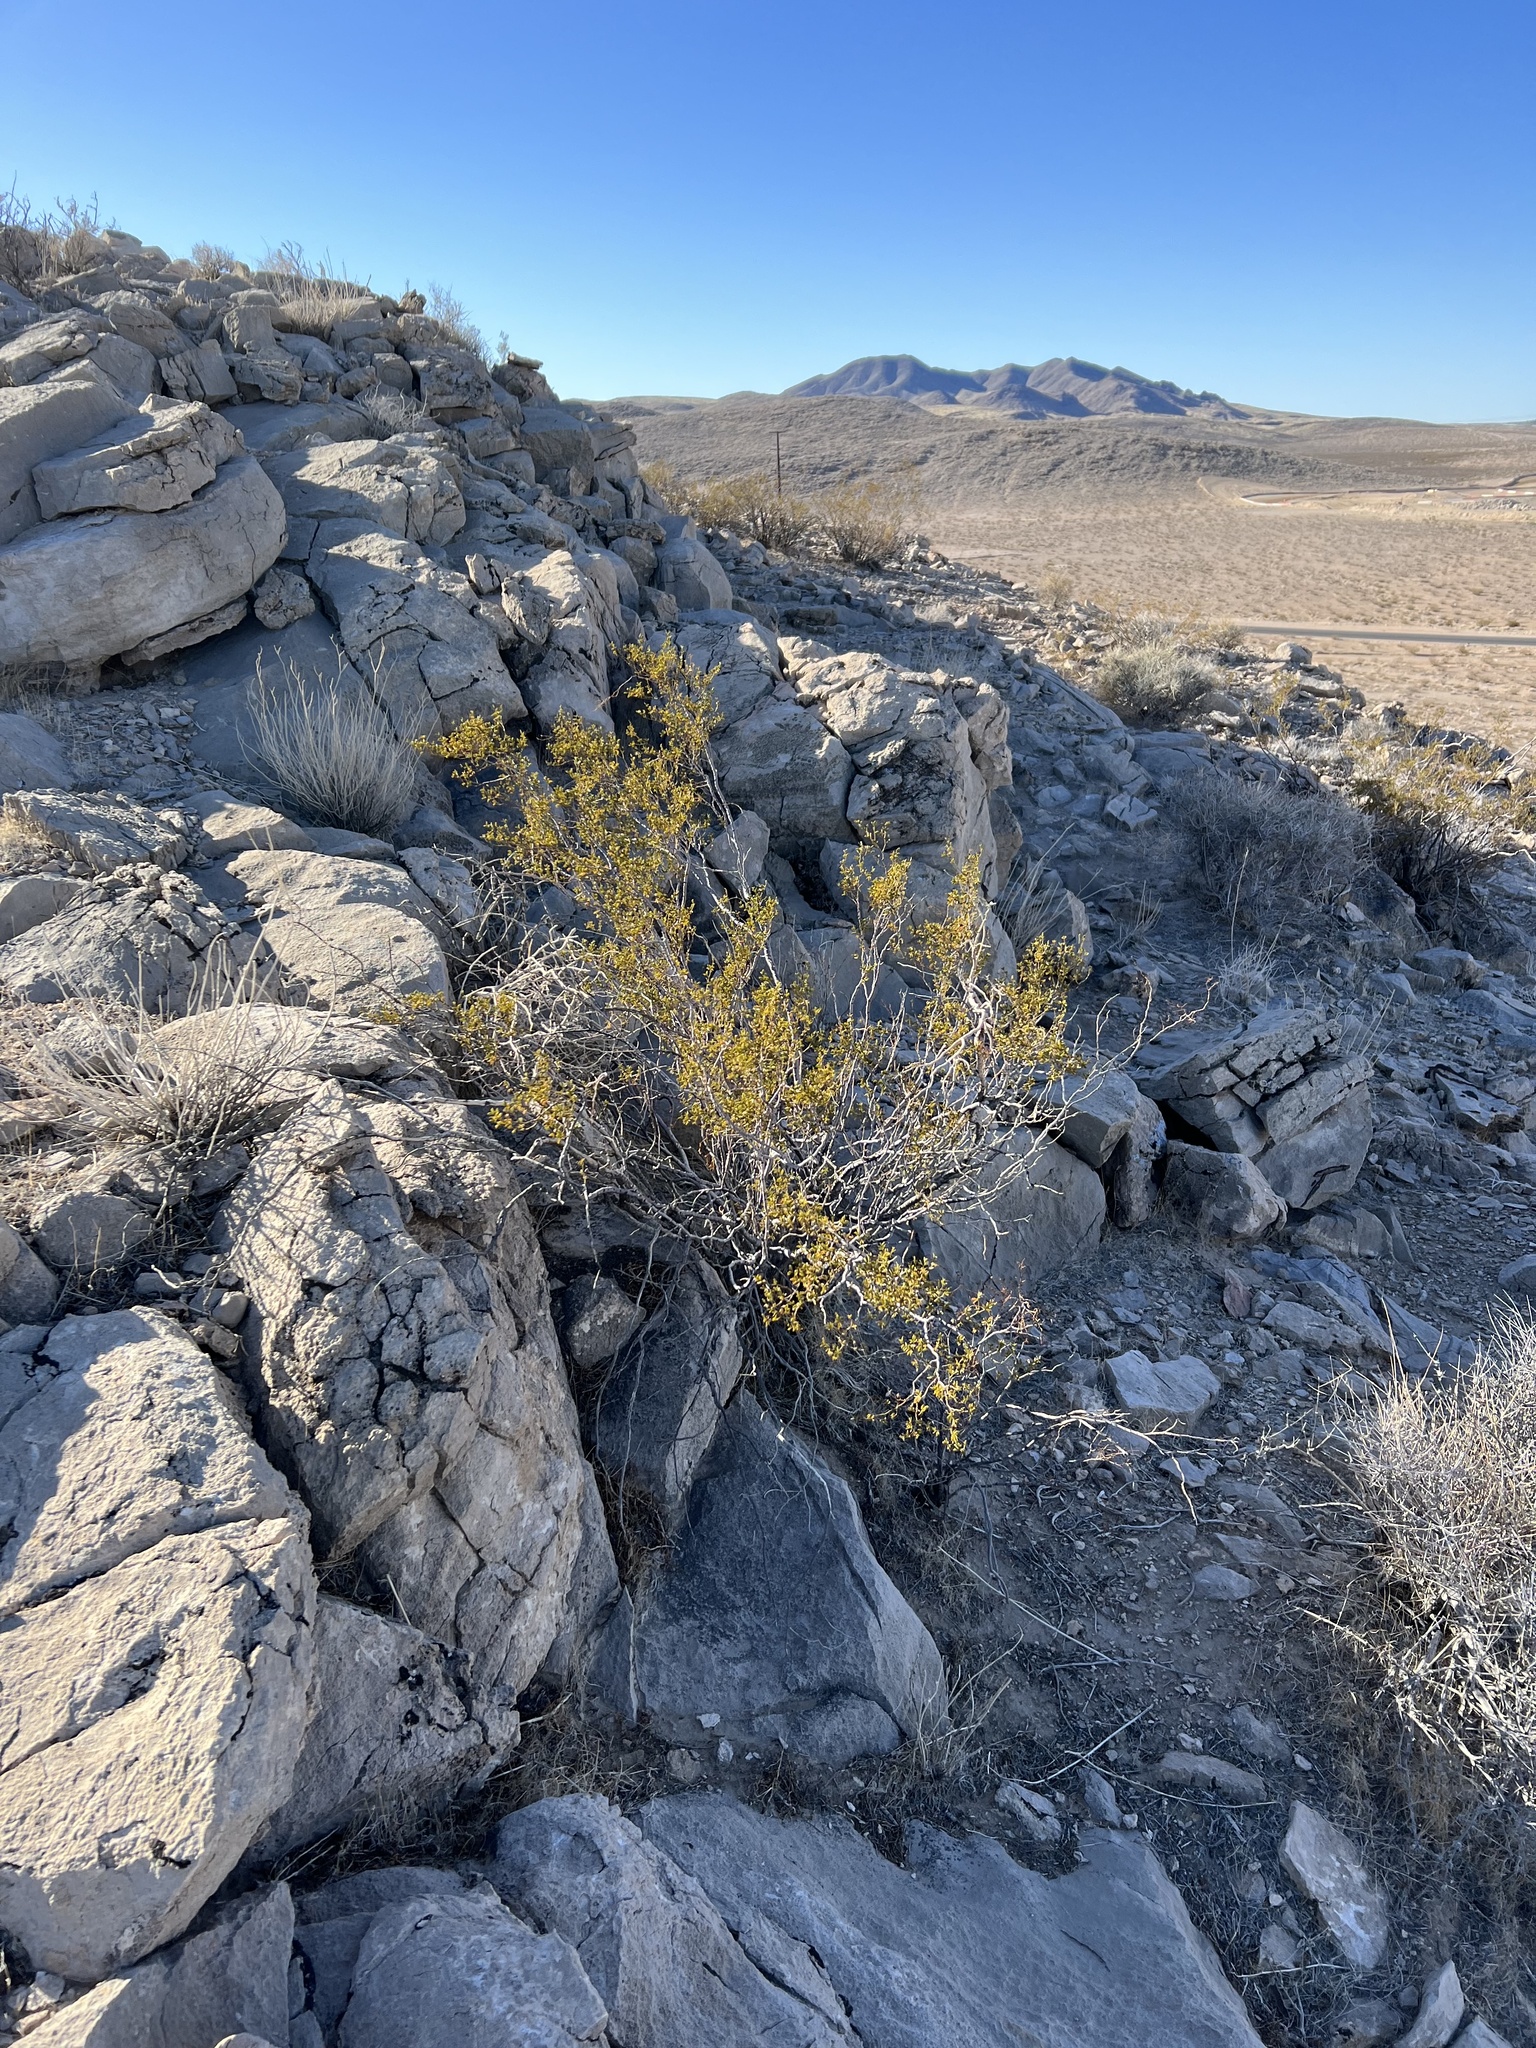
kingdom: Plantae
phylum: Tracheophyta
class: Magnoliopsida
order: Zygophyllales
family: Zygophyllaceae
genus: Larrea
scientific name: Larrea tridentata
